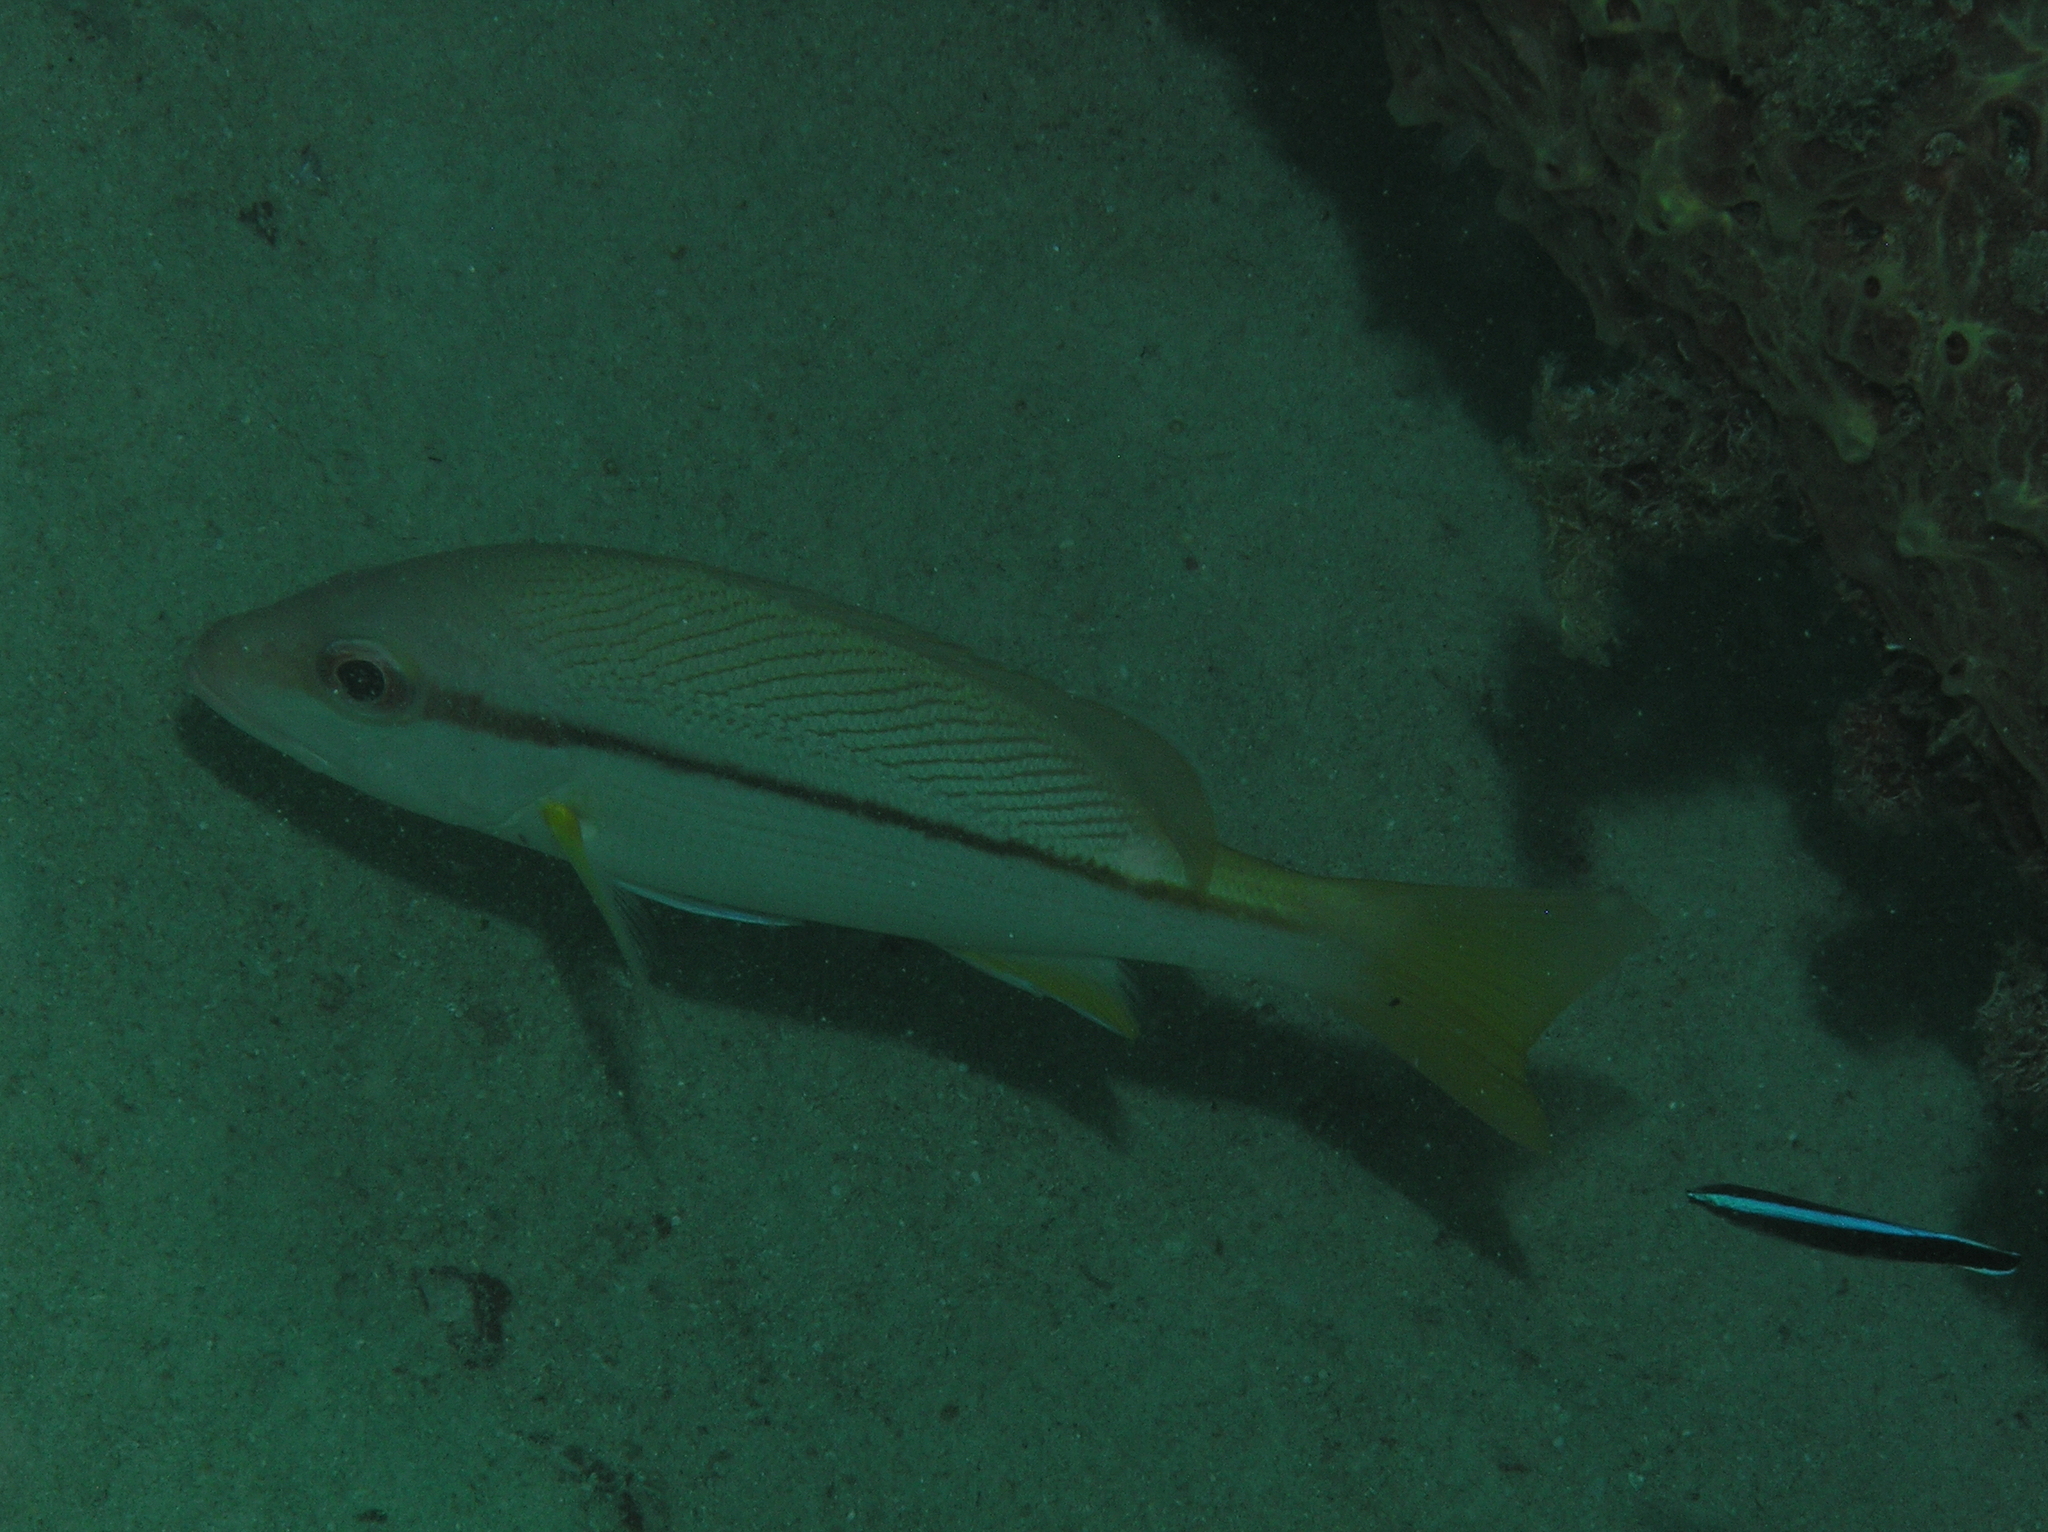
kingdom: Animalia
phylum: Chordata
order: Perciformes
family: Lutjanidae
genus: Lutjanus
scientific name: Lutjanus vitta
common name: Brownstripe red snapper
